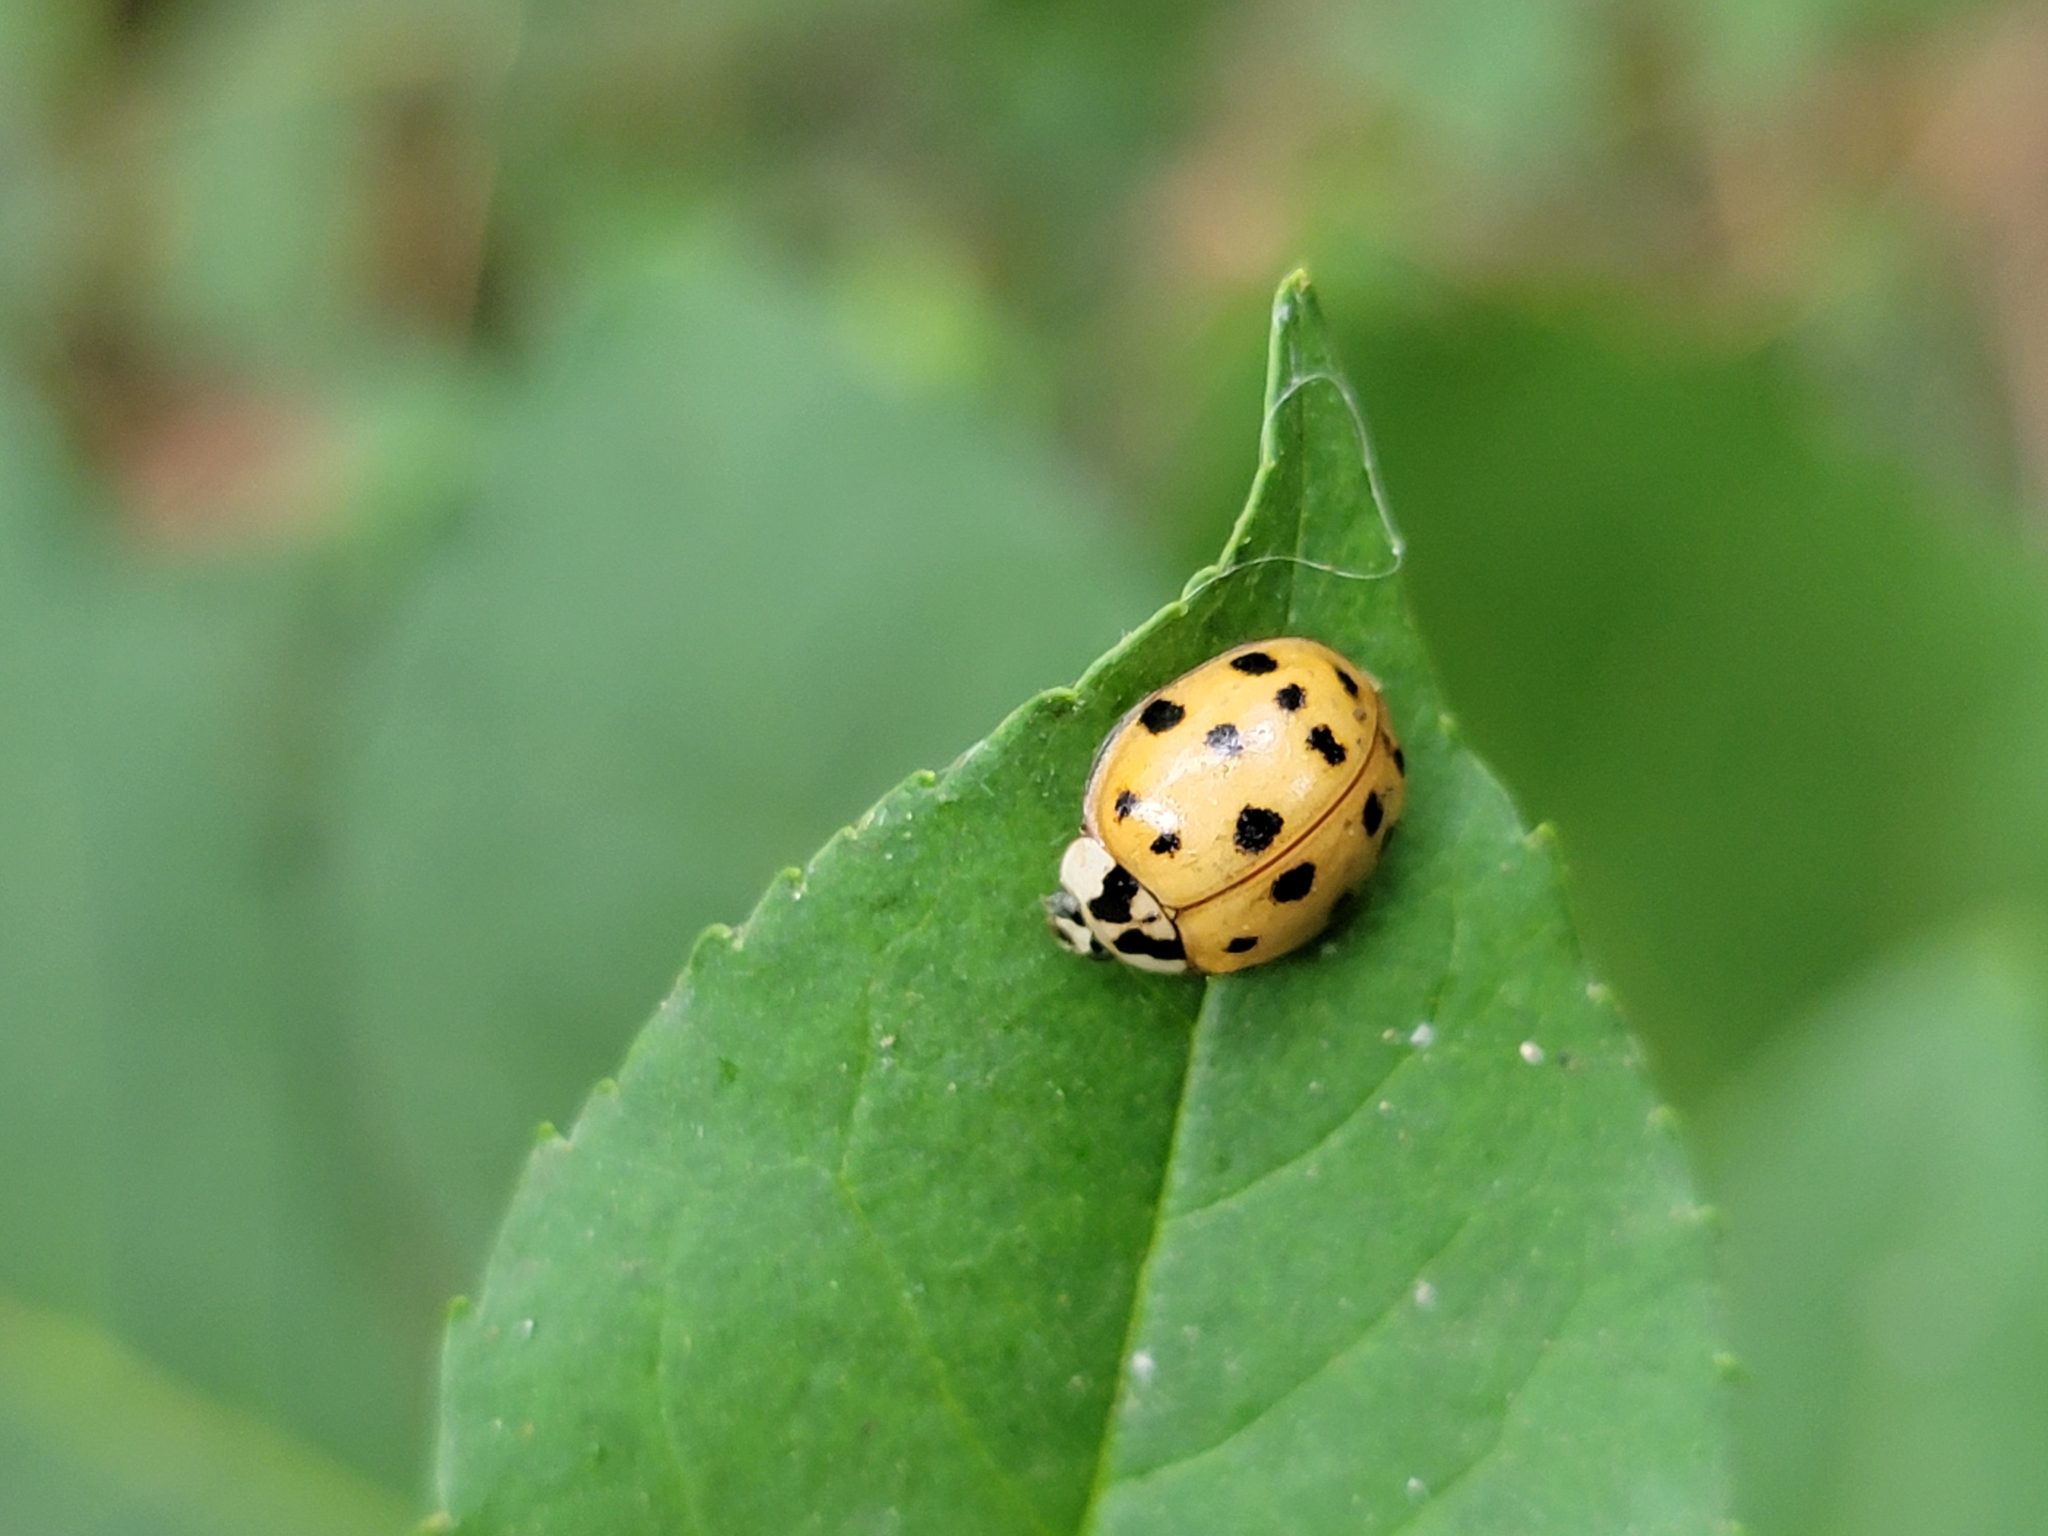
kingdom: Animalia
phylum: Arthropoda
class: Insecta
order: Coleoptera
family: Coccinellidae
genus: Harmonia
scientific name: Harmonia axyridis
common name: Harlequin ladybird
